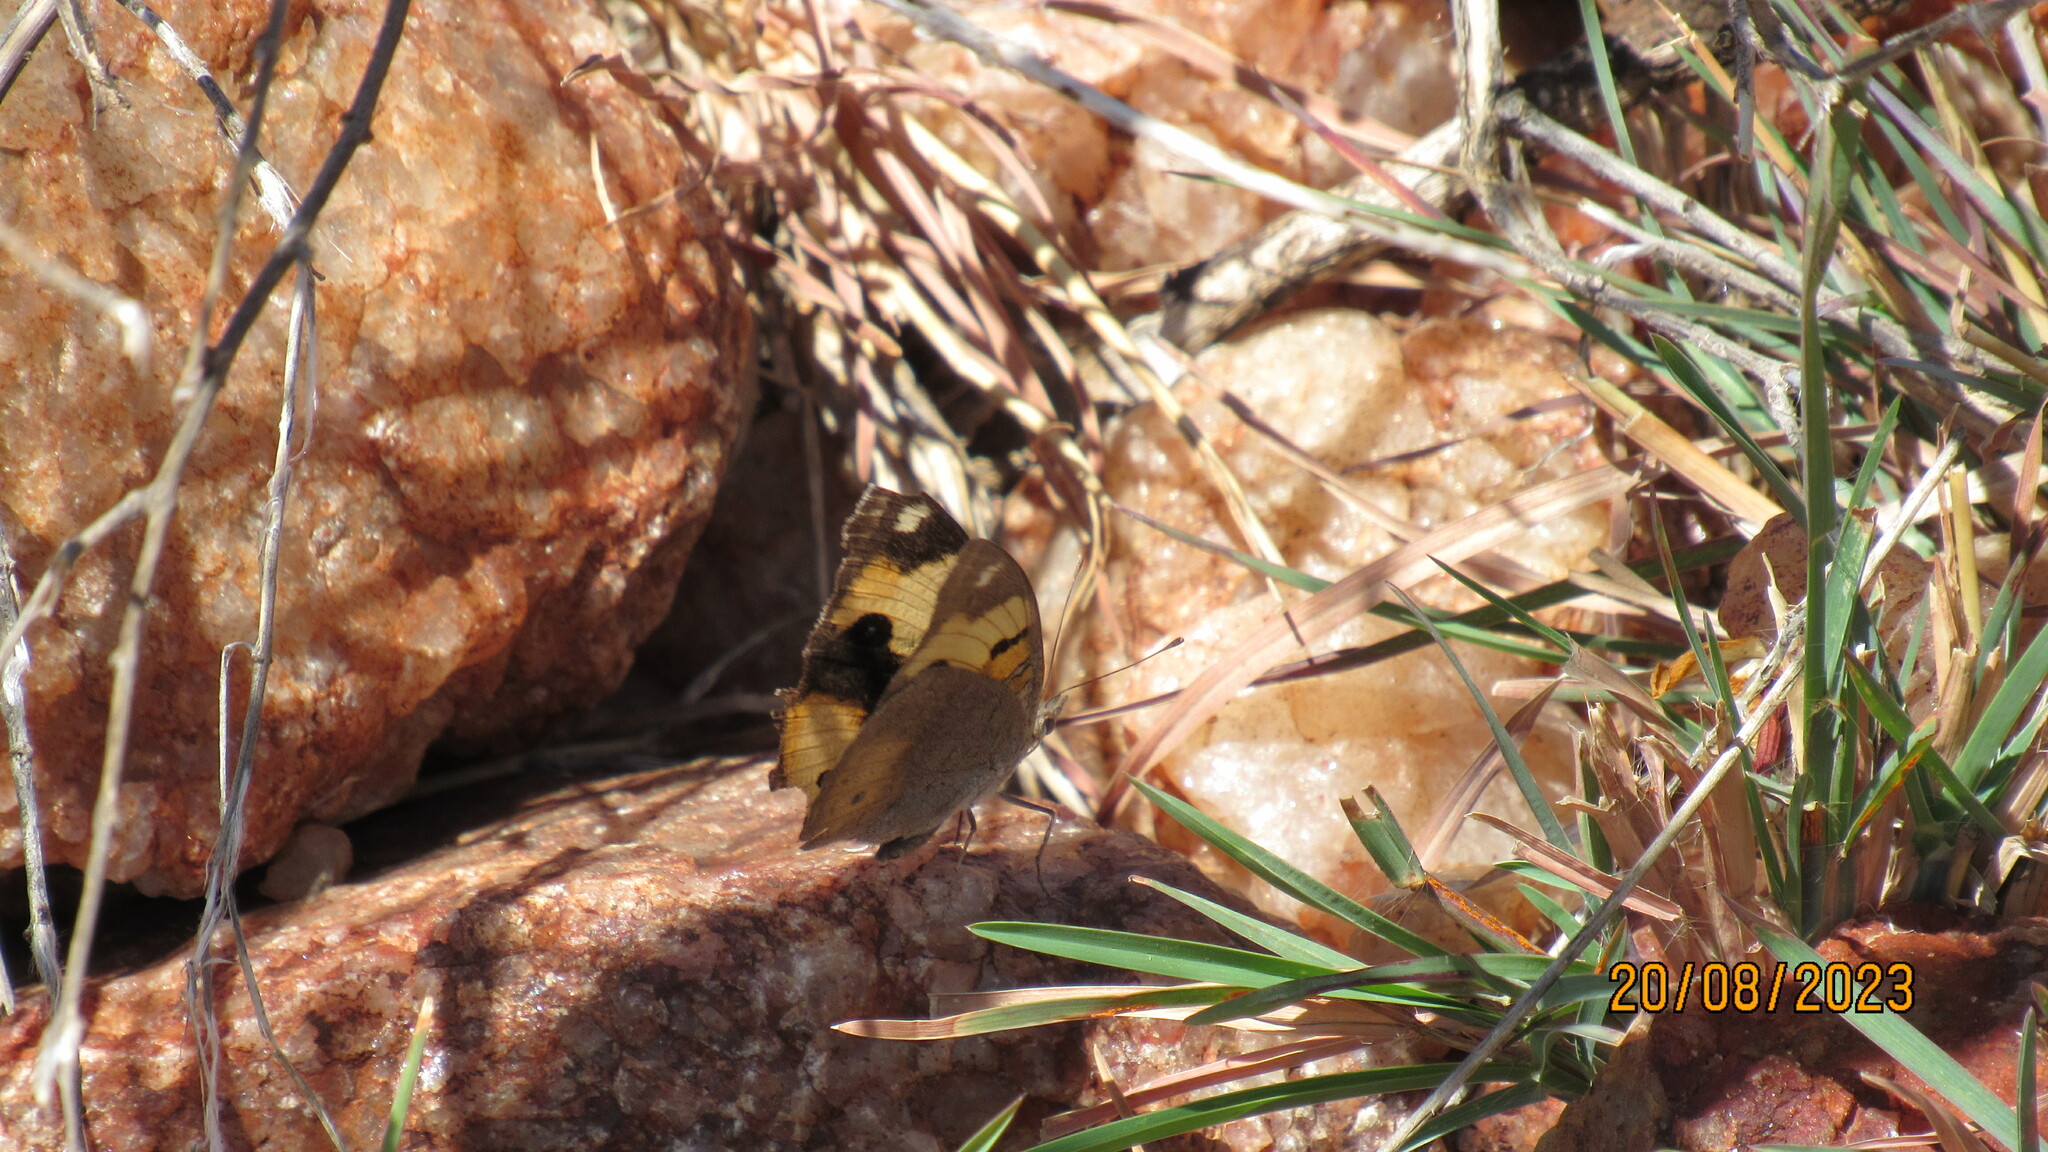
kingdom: Animalia
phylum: Arthropoda
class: Insecta
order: Lepidoptera
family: Nymphalidae
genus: Junonia
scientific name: Junonia hierta
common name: Yellow pansy
